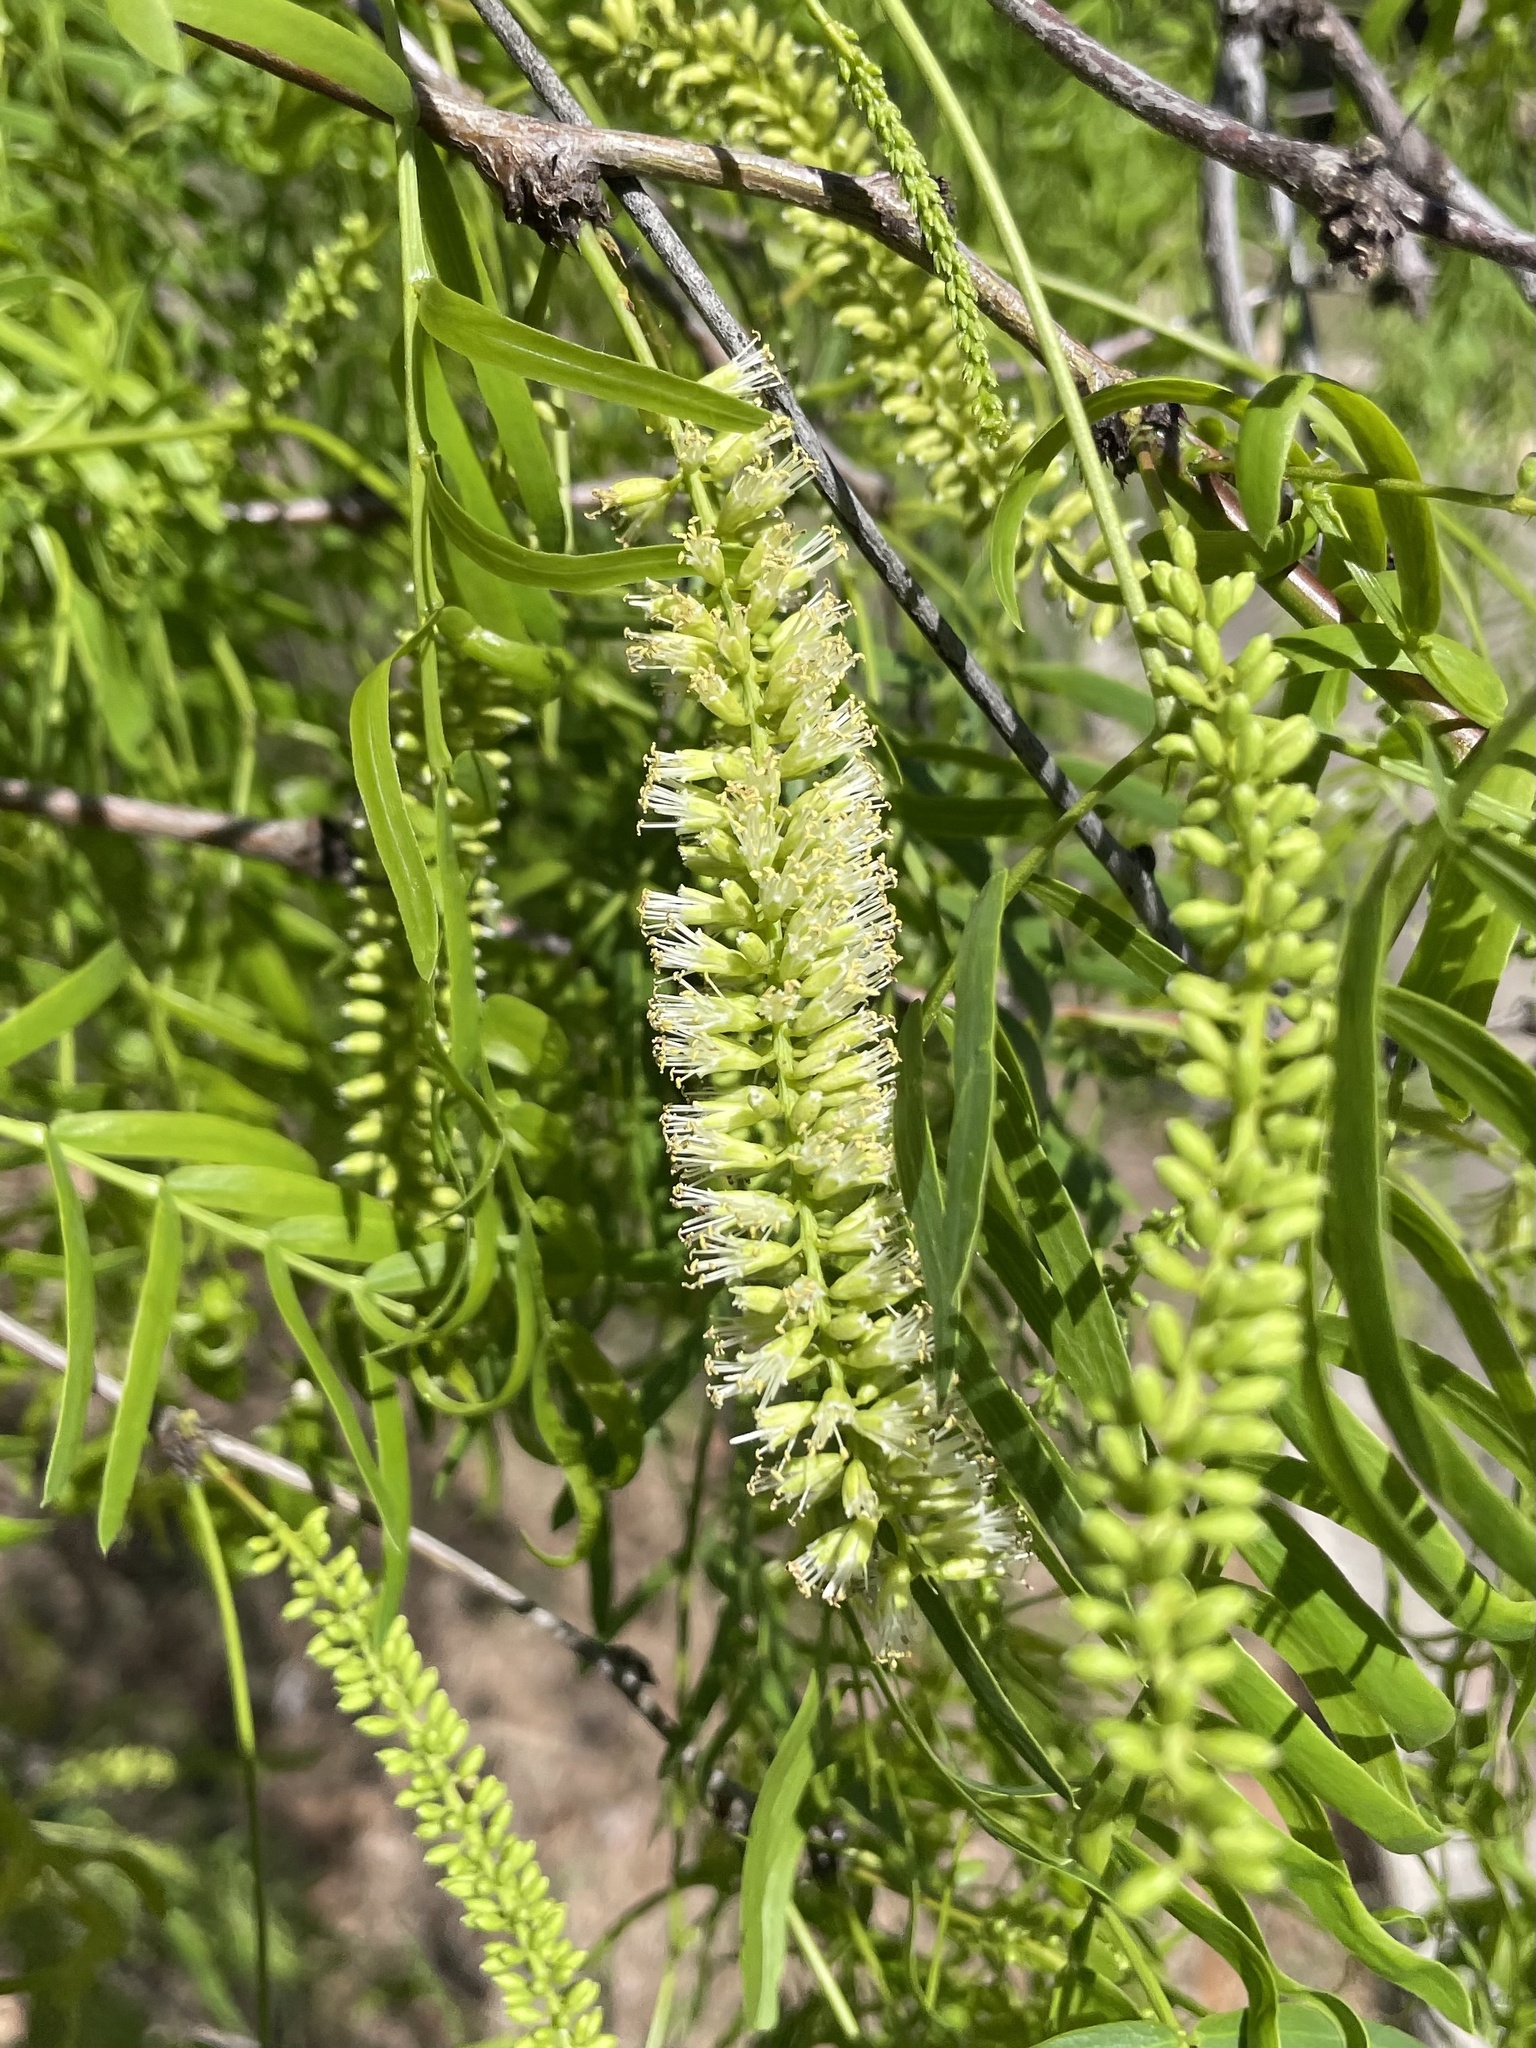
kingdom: Plantae
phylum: Tracheophyta
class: Magnoliopsida
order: Fabales
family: Fabaceae
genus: Prosopis
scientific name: Prosopis glandulosa
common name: Honey mesquite
